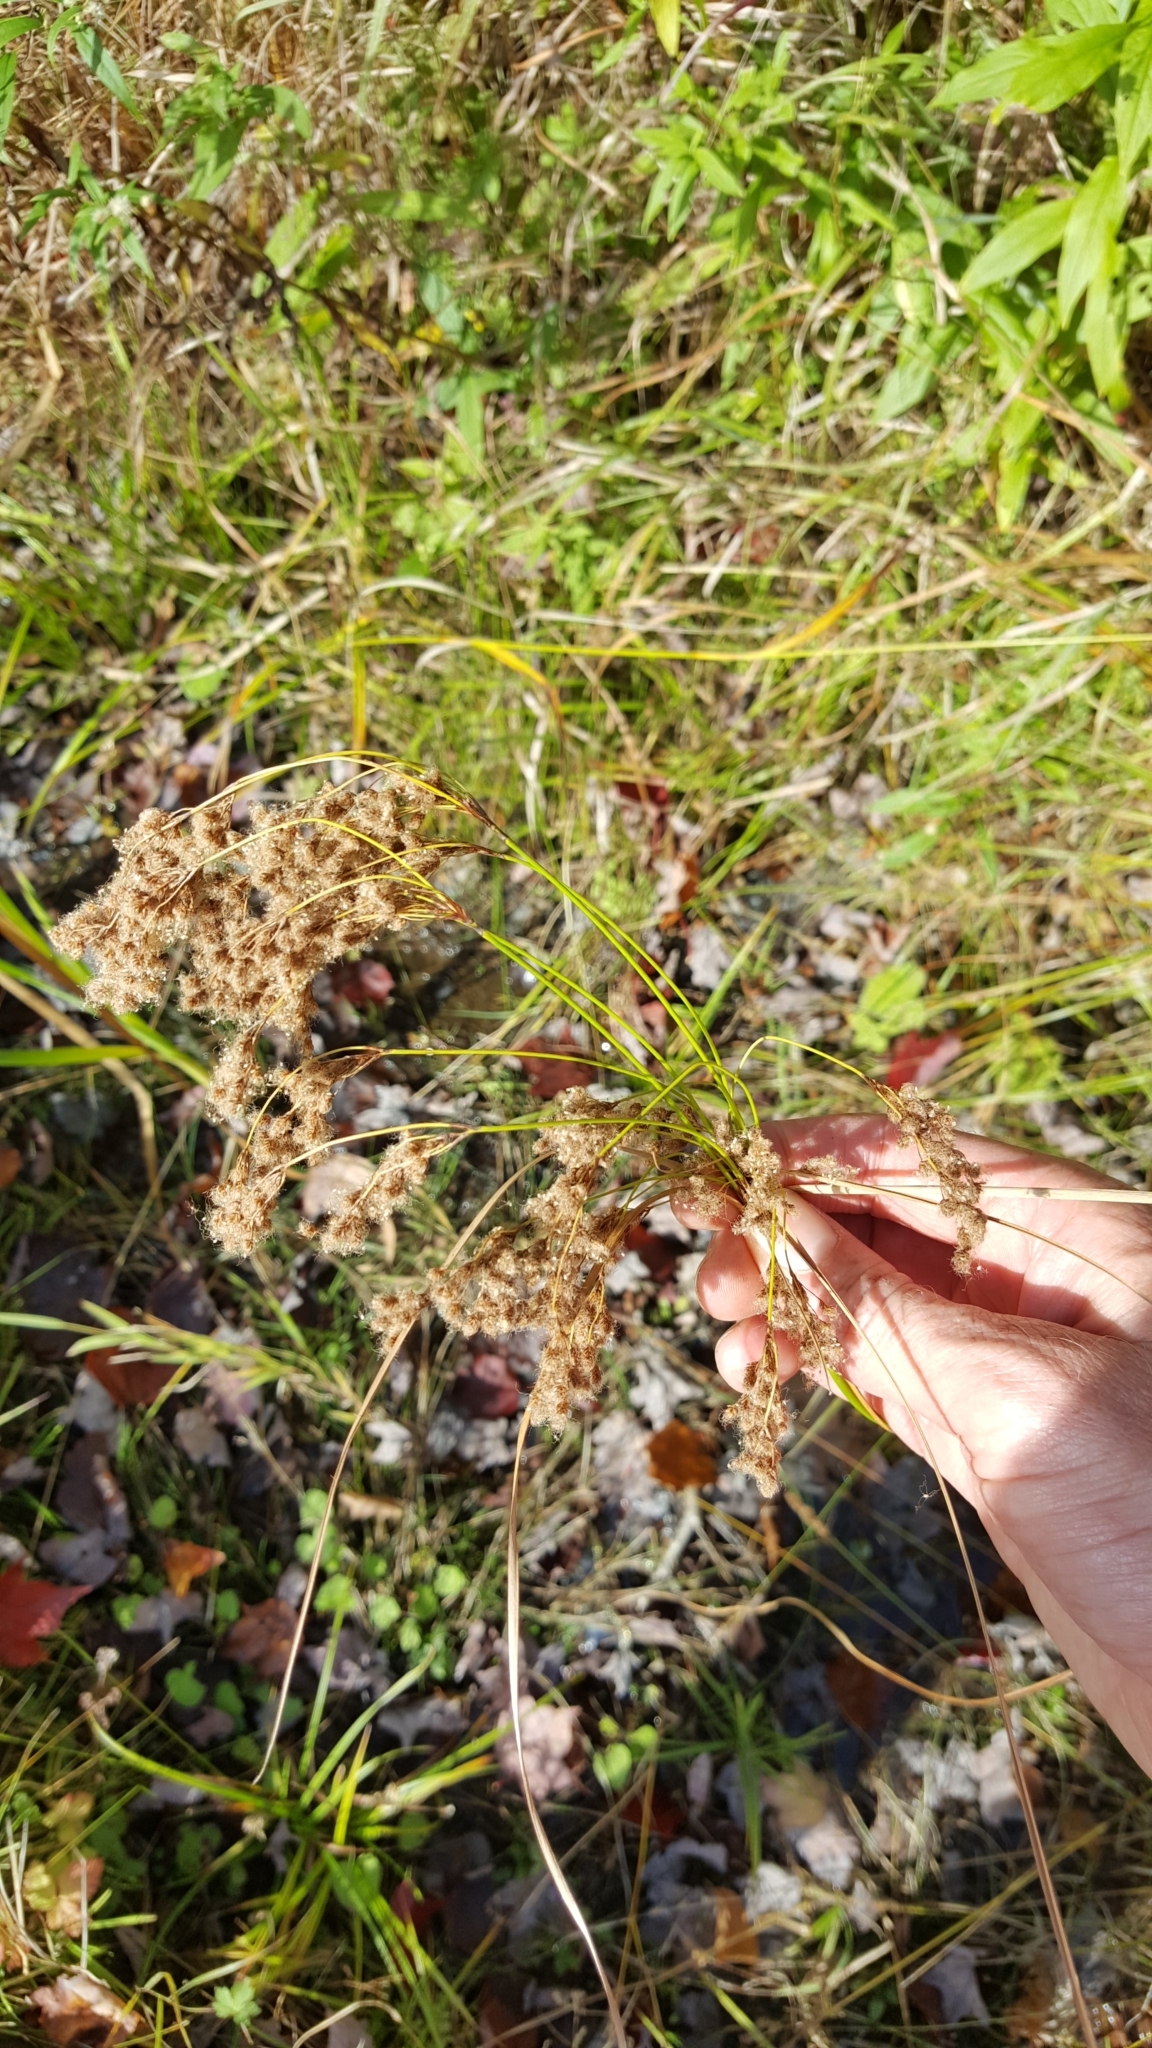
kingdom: Plantae
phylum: Tracheophyta
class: Liliopsida
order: Poales
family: Cyperaceae
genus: Scirpus
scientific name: Scirpus cyperinus
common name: Black-sheathed bulrush
